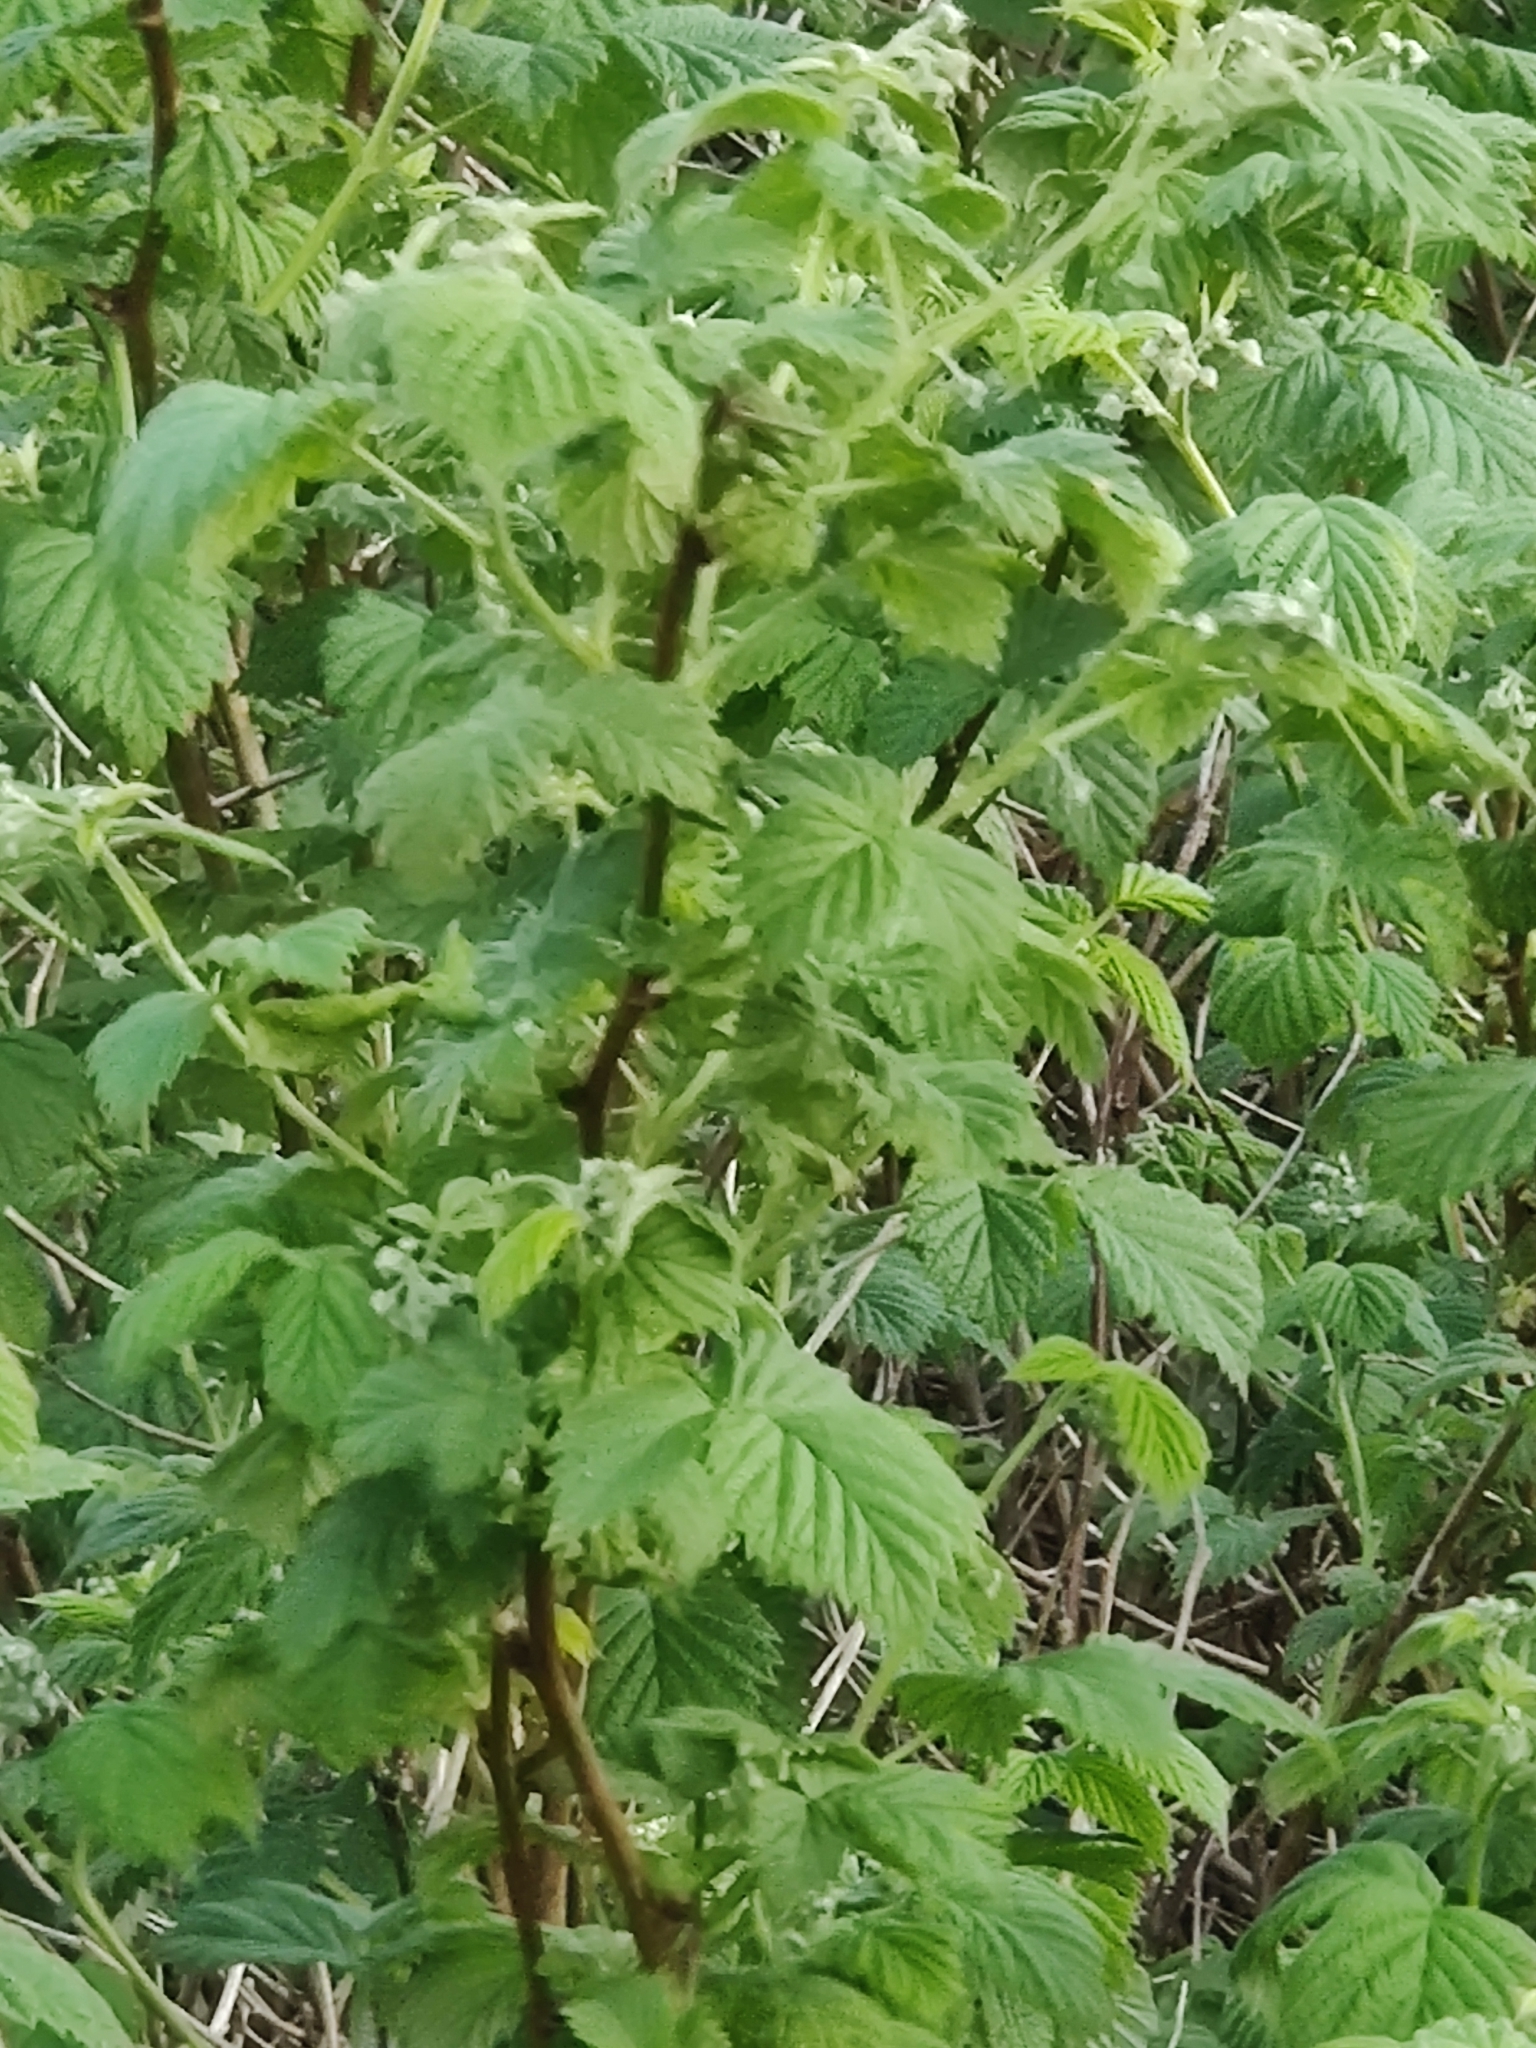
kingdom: Plantae
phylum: Tracheophyta
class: Magnoliopsida
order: Rosales
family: Rosaceae
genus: Rubus
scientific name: Rubus idaeus
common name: Raspberry
